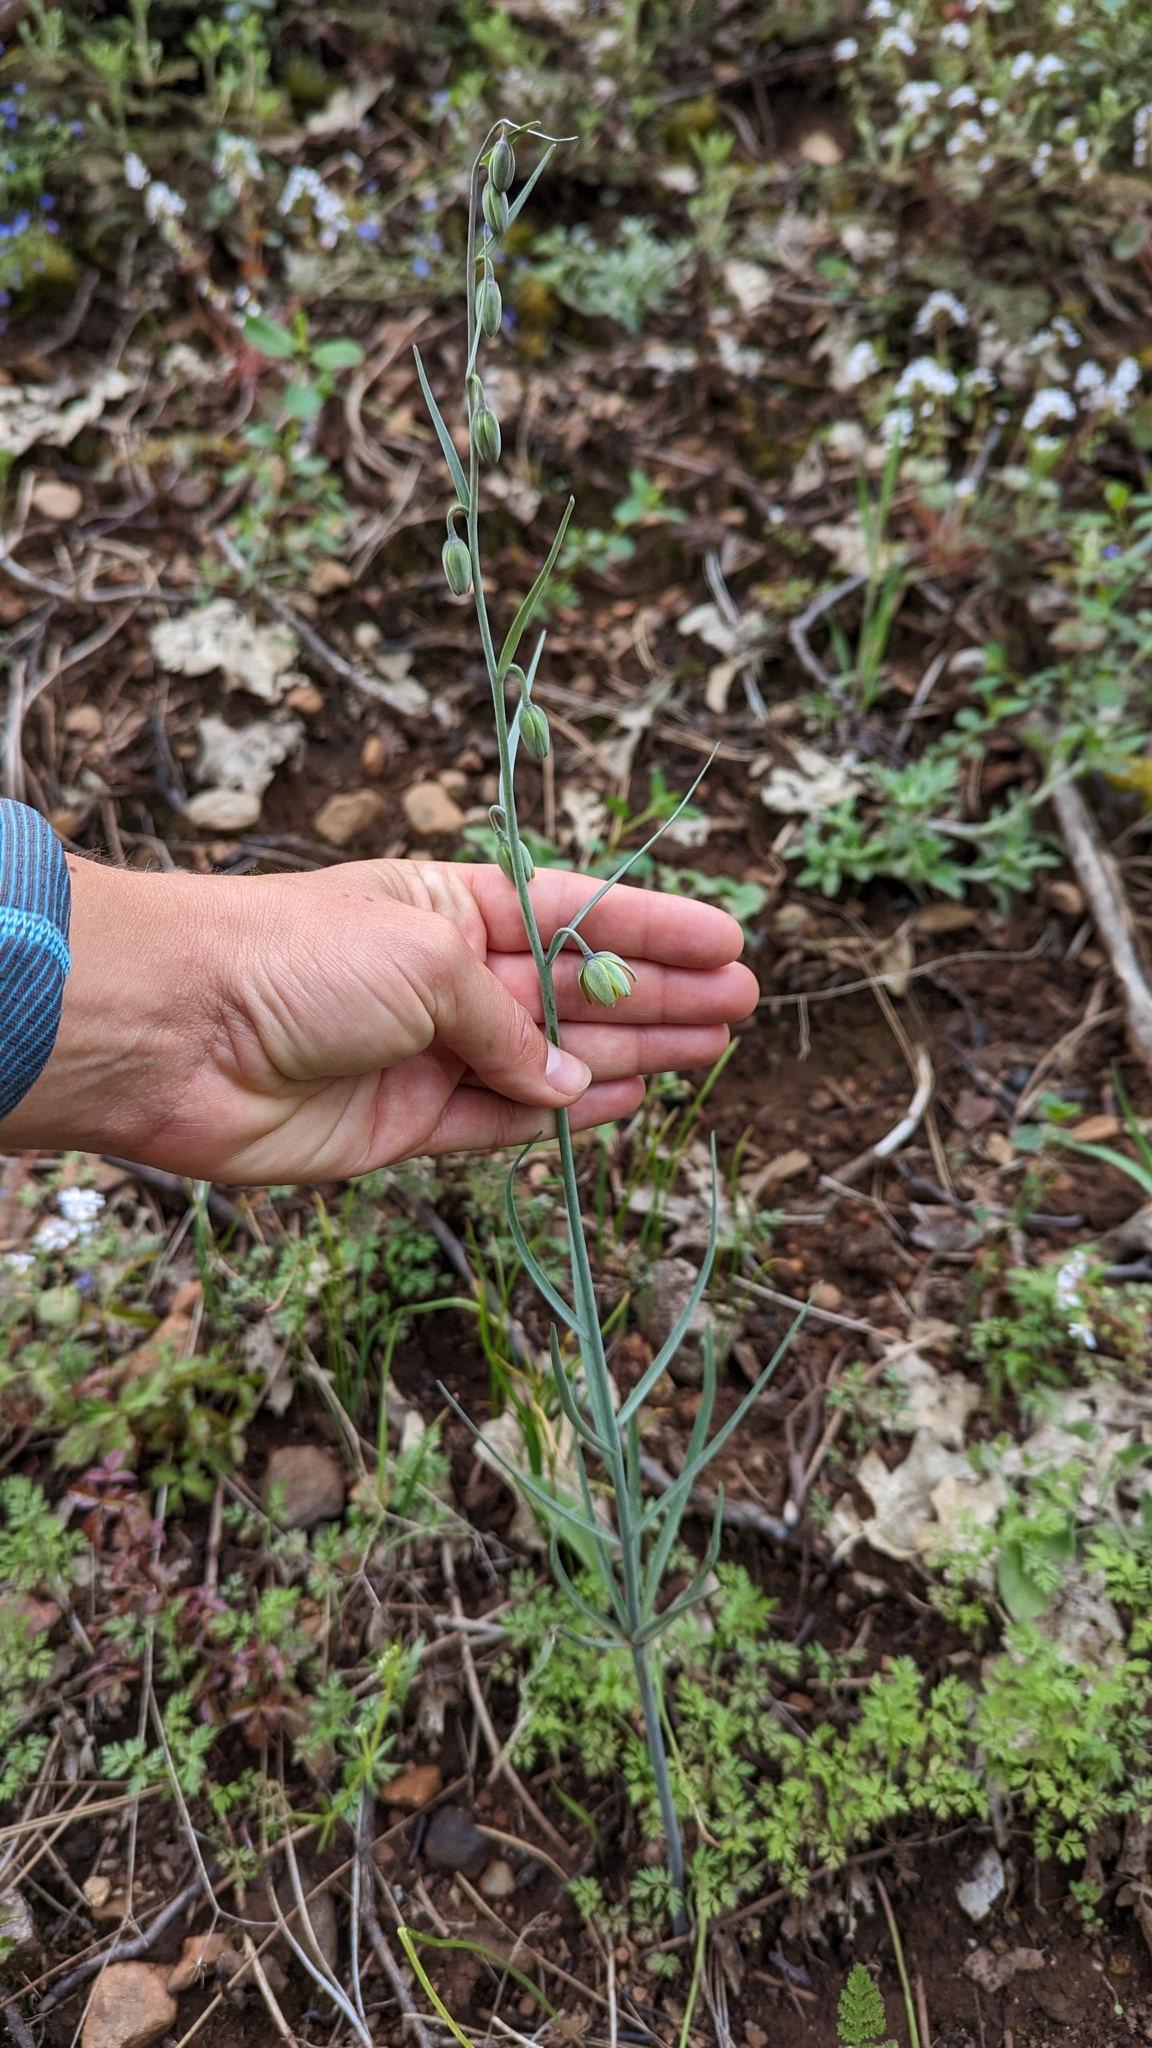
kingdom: Plantae
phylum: Tracheophyta
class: Liliopsida
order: Liliales
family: Liliaceae
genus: Fritillaria
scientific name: Fritillaria micrantha
